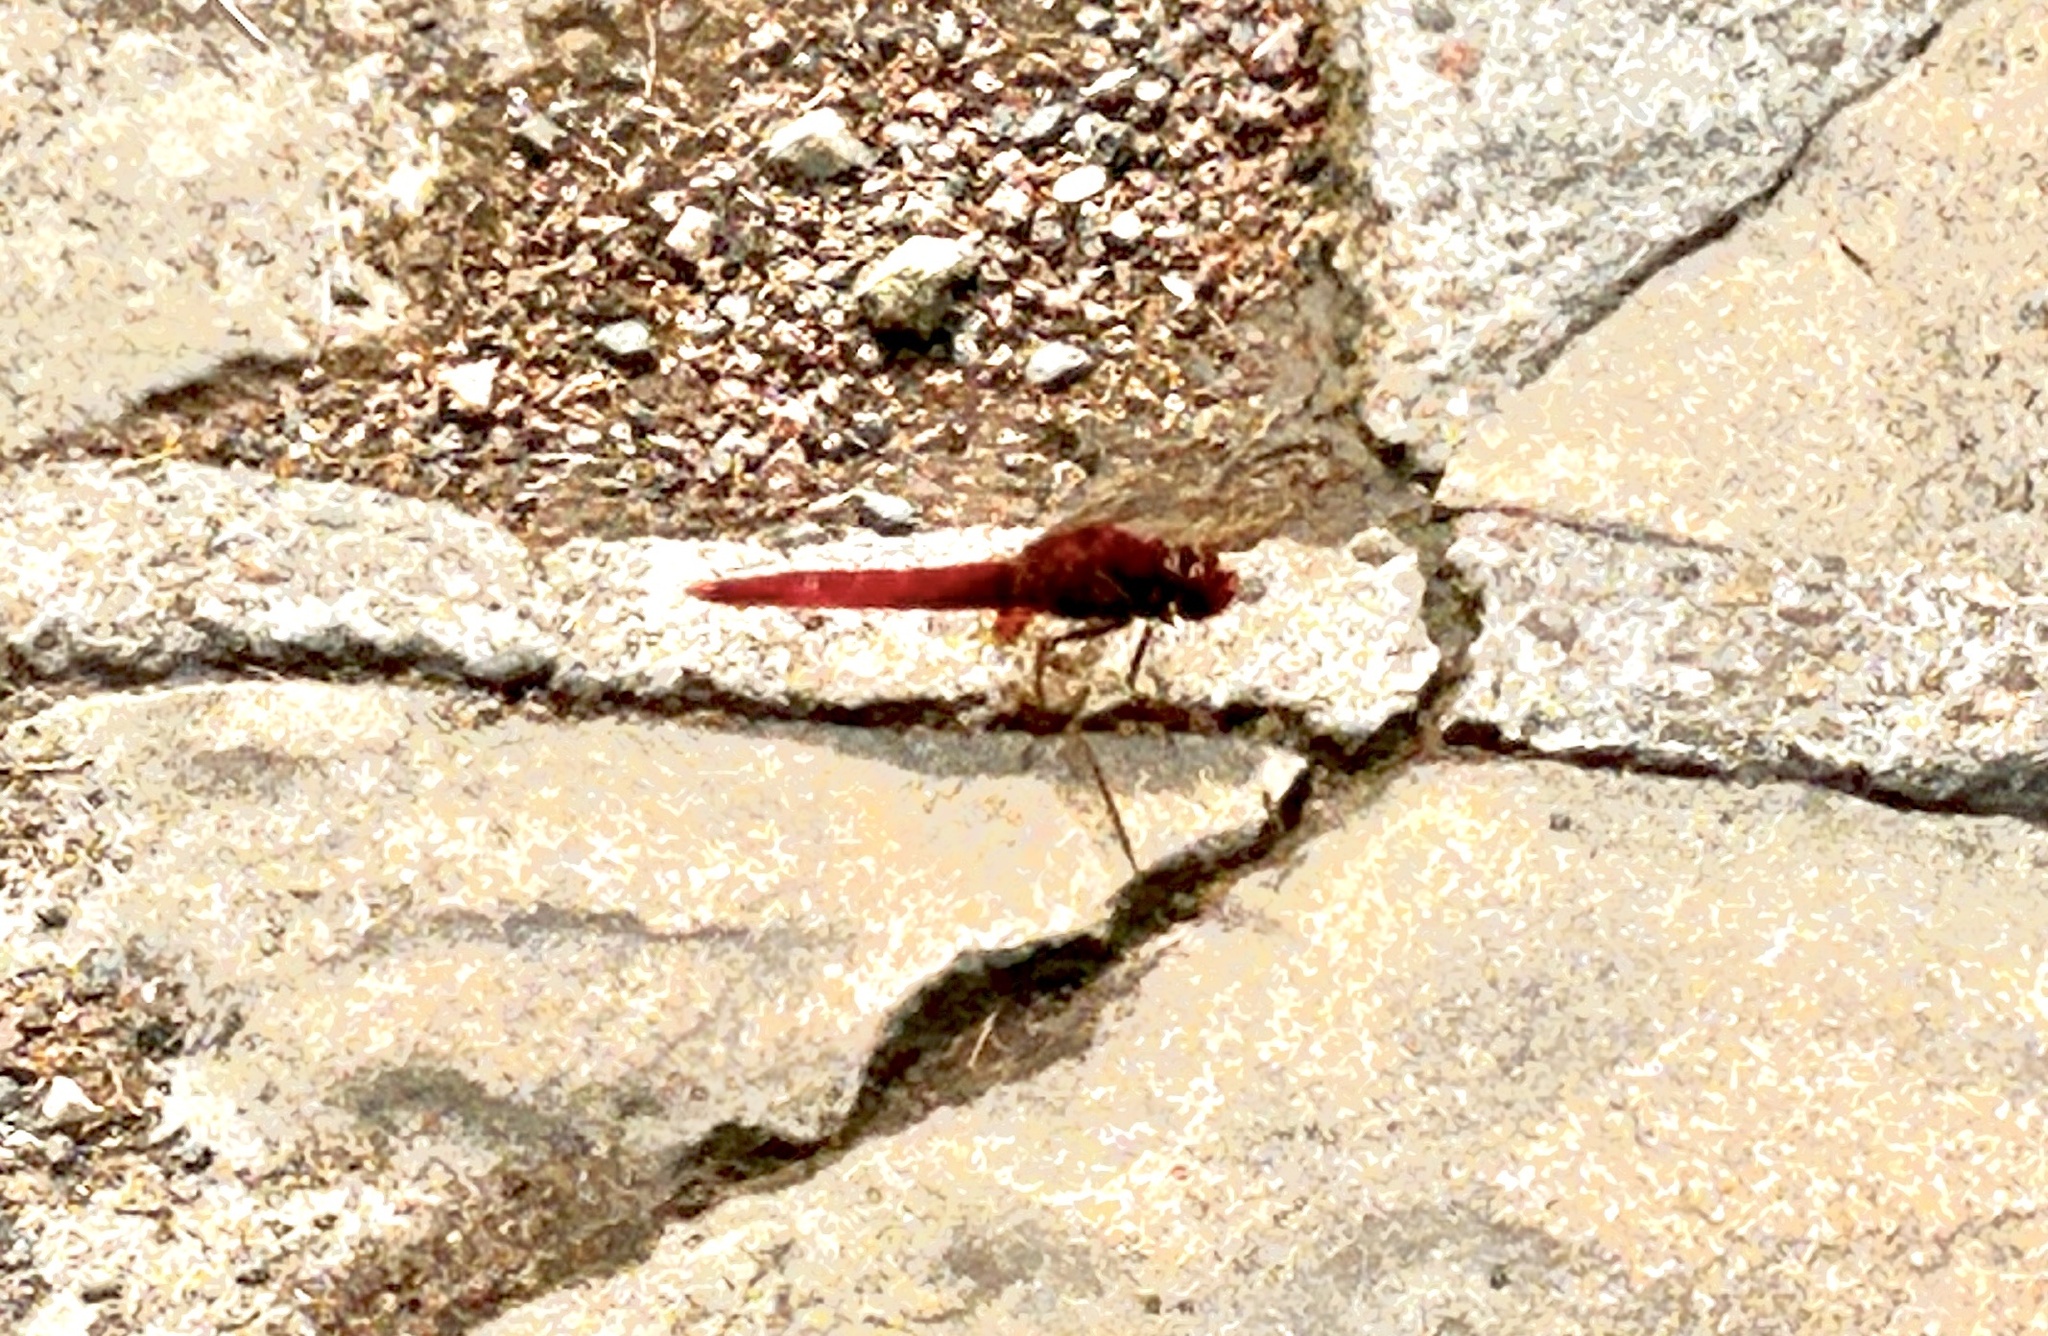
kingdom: Animalia
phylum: Arthropoda
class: Insecta
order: Odonata
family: Libellulidae
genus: Crocothemis
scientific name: Crocothemis erythraea
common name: Scarlet dragonfly
